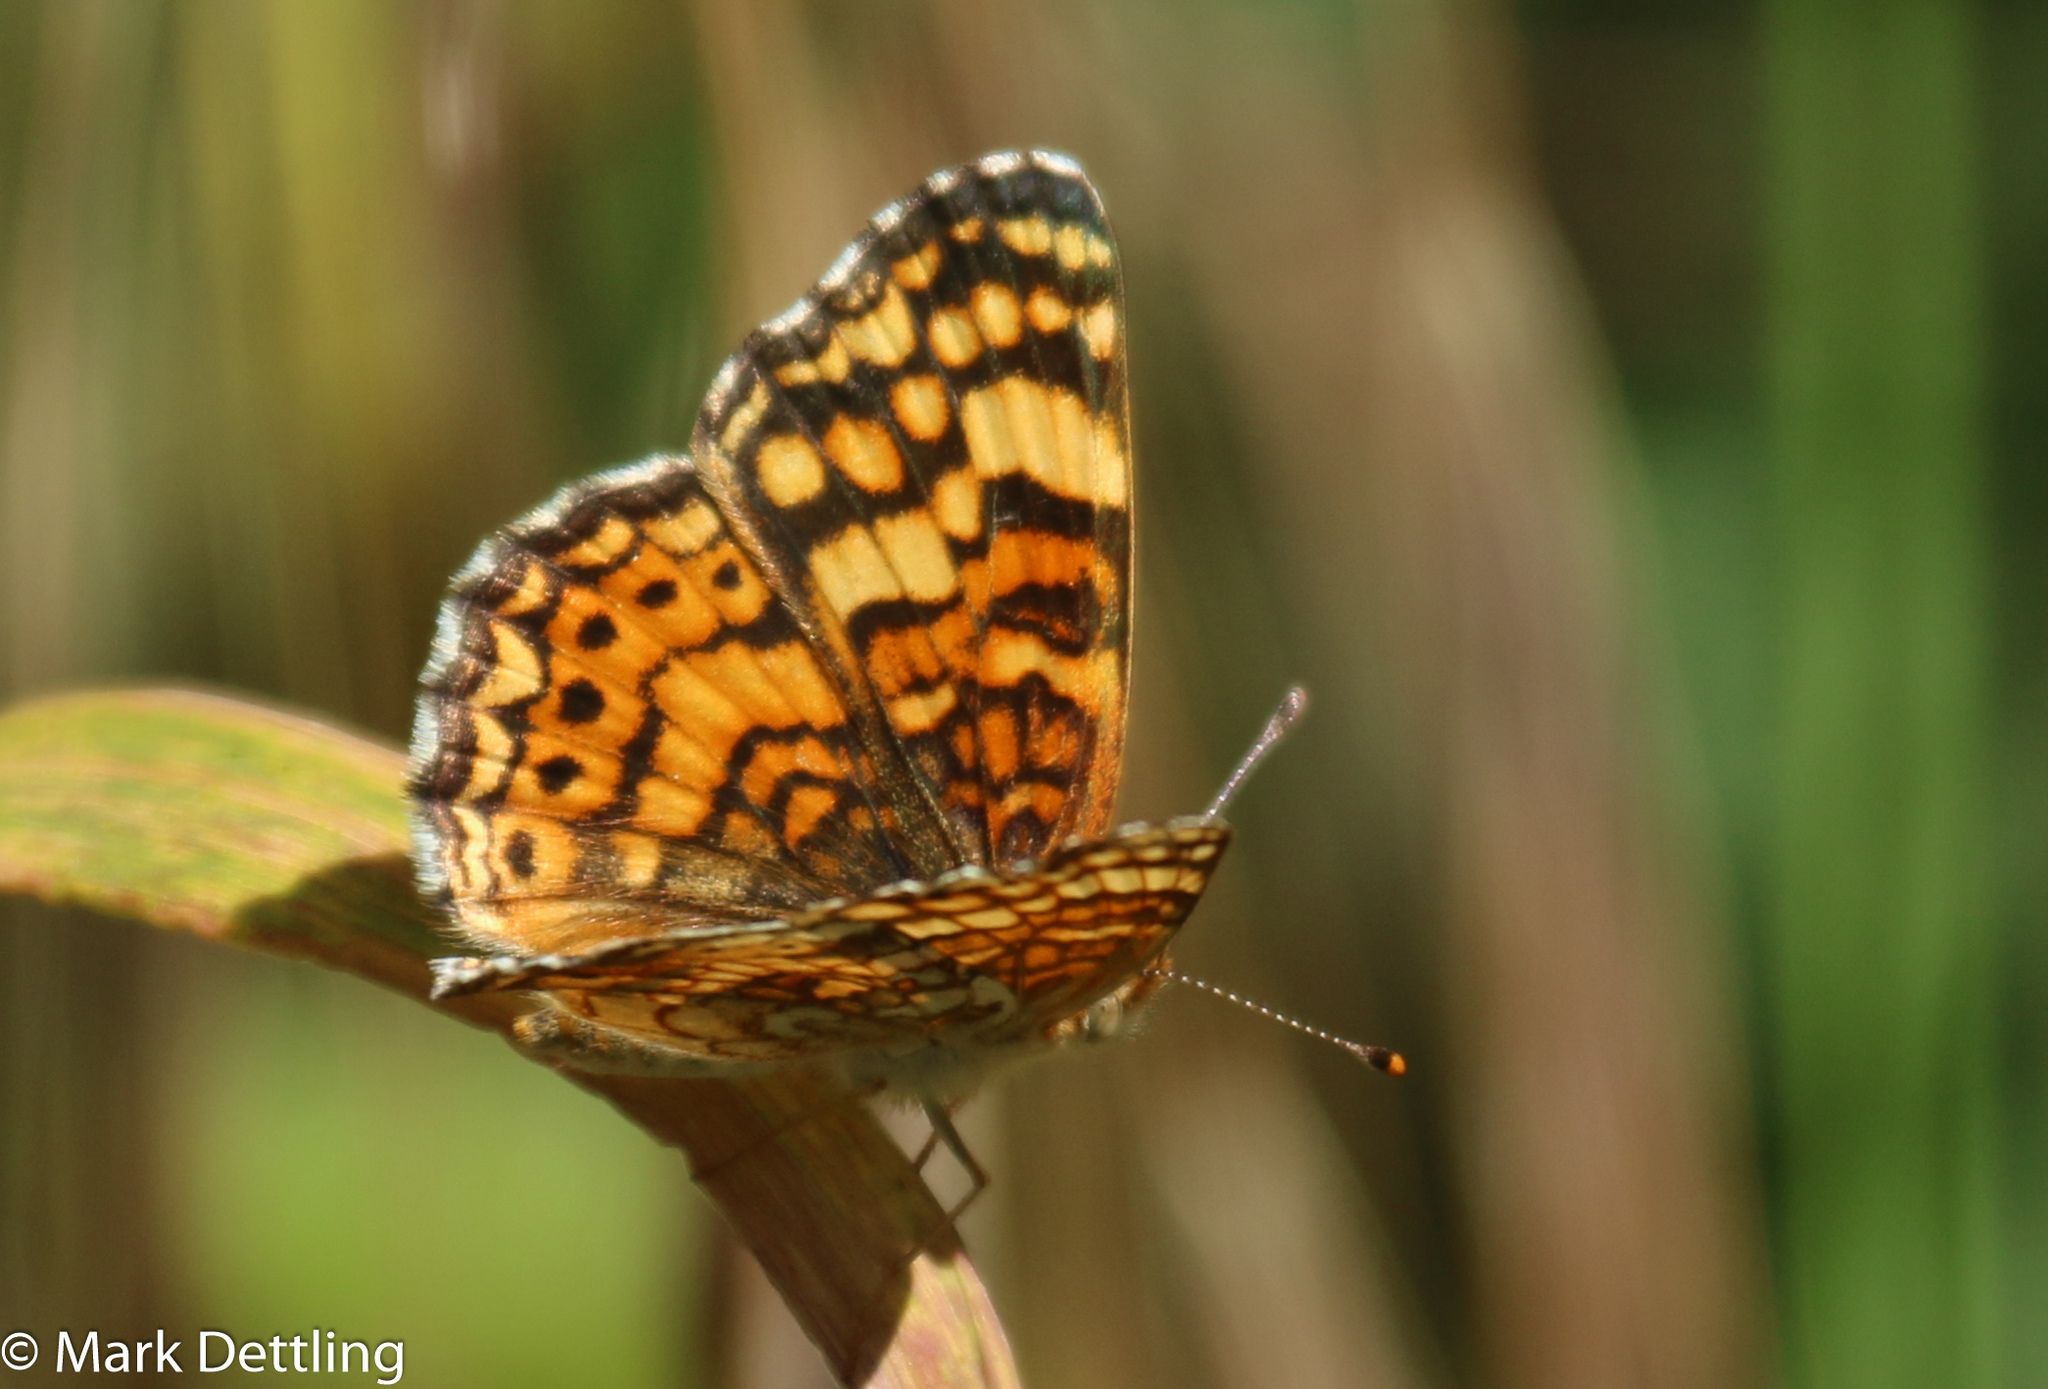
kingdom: Animalia
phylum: Arthropoda
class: Insecta
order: Lepidoptera
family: Nymphalidae
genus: Eresia
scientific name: Eresia aveyrona
